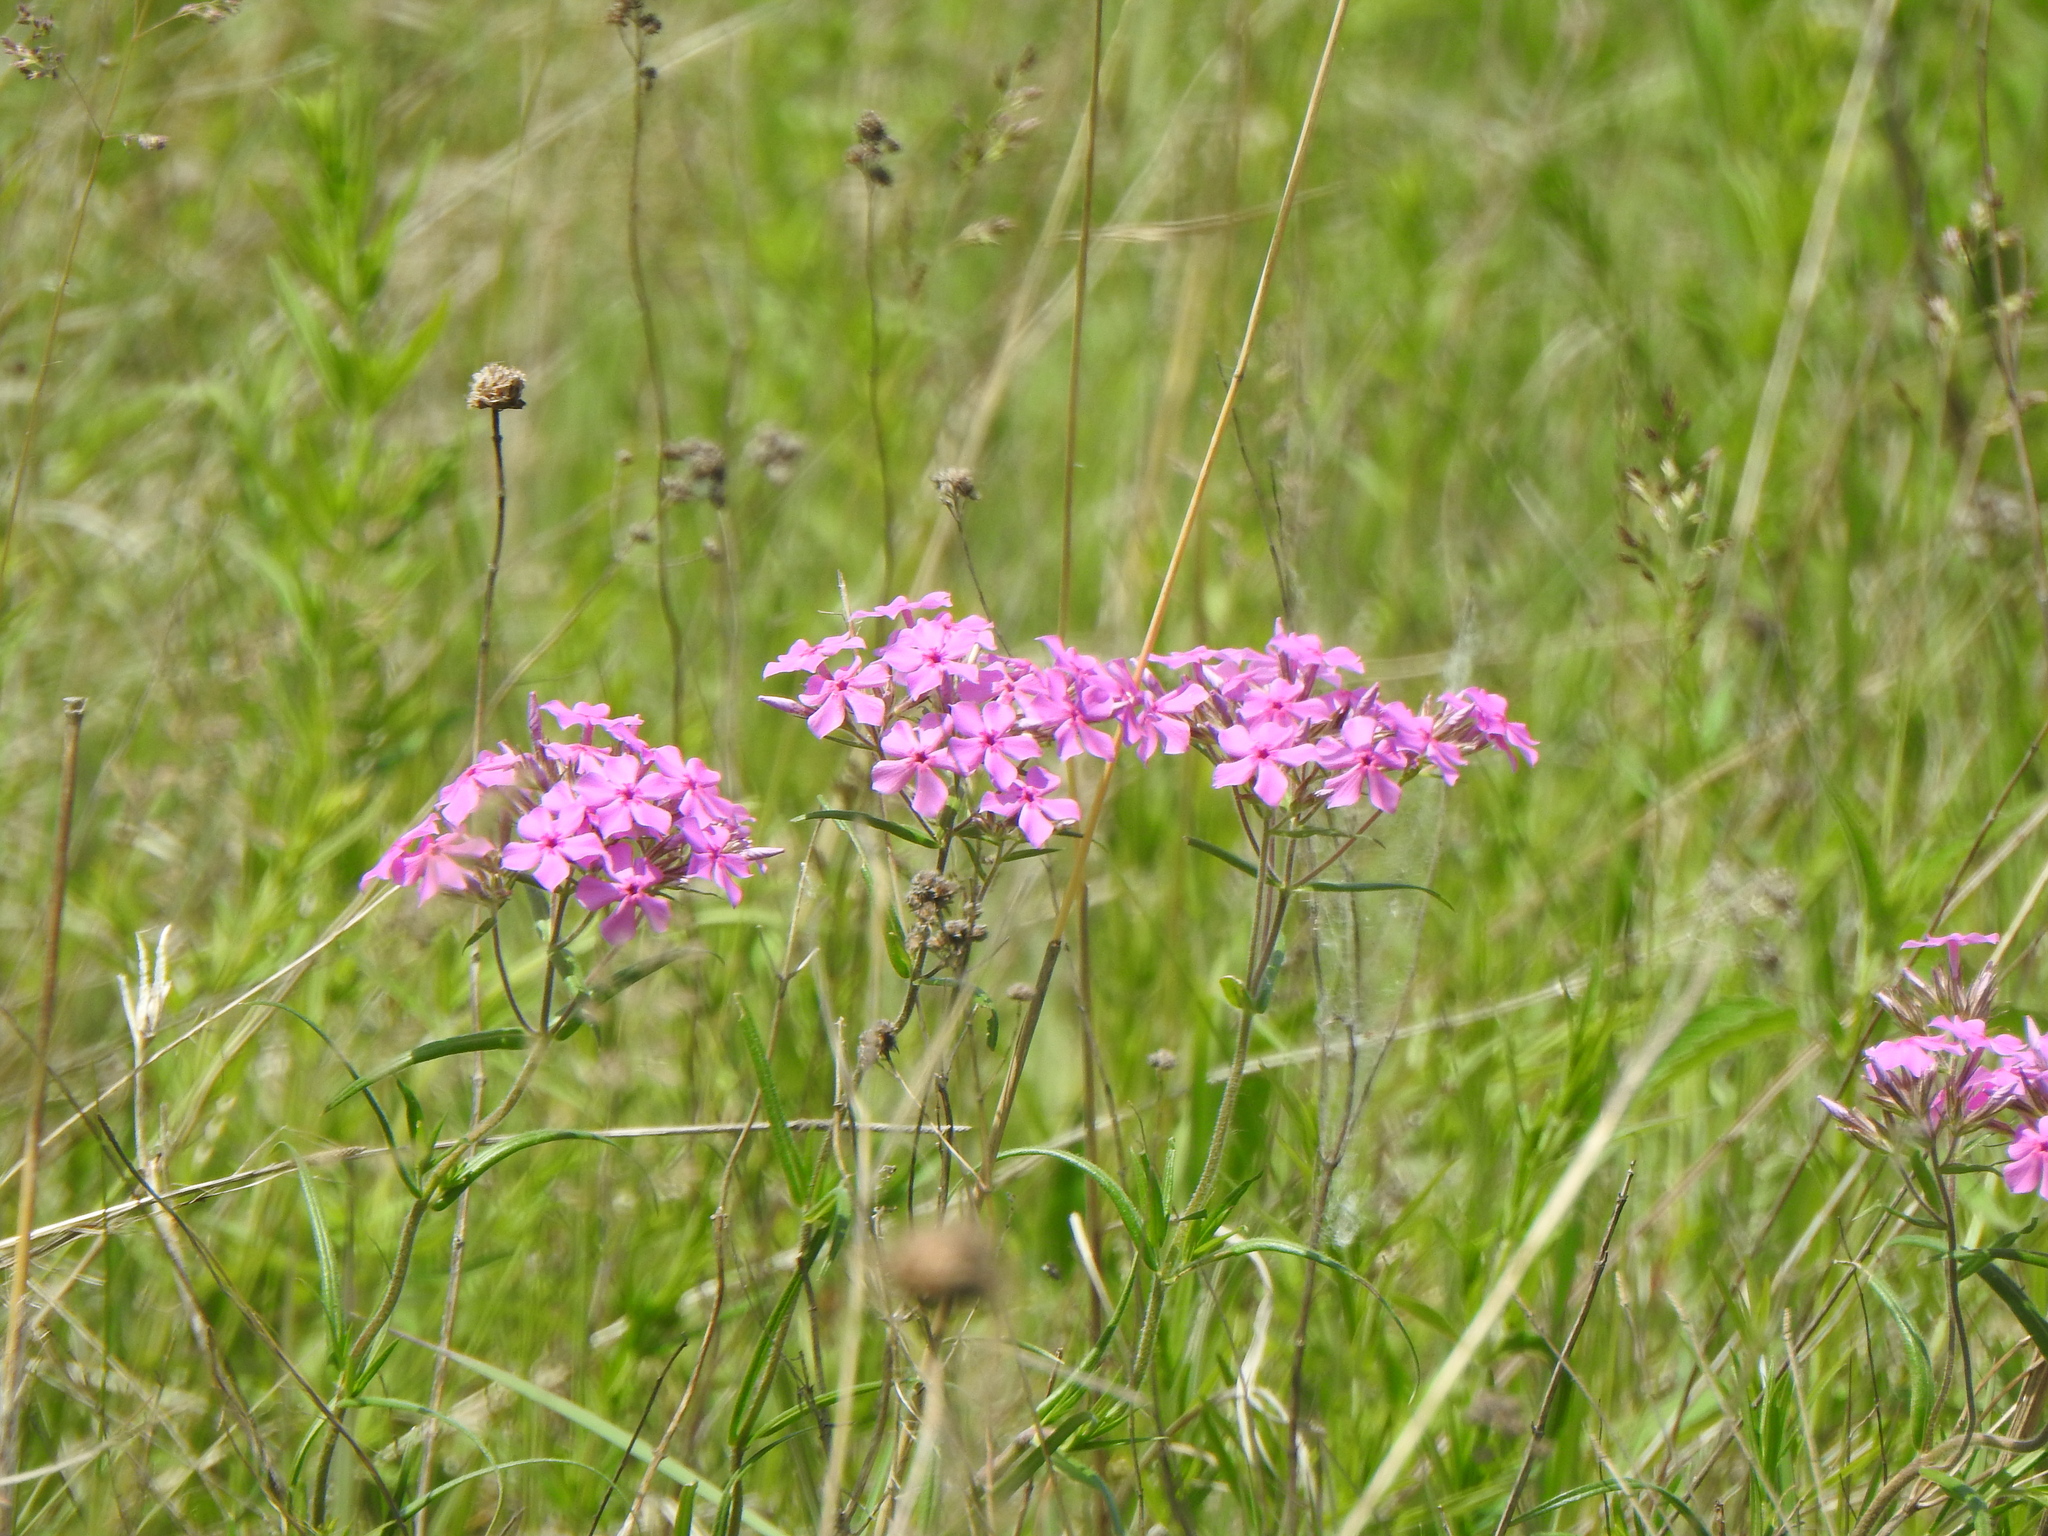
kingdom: Plantae
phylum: Tracheophyta
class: Magnoliopsida
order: Ericales
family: Polemoniaceae
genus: Phlox
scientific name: Phlox pilosa
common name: Prairie phlox
